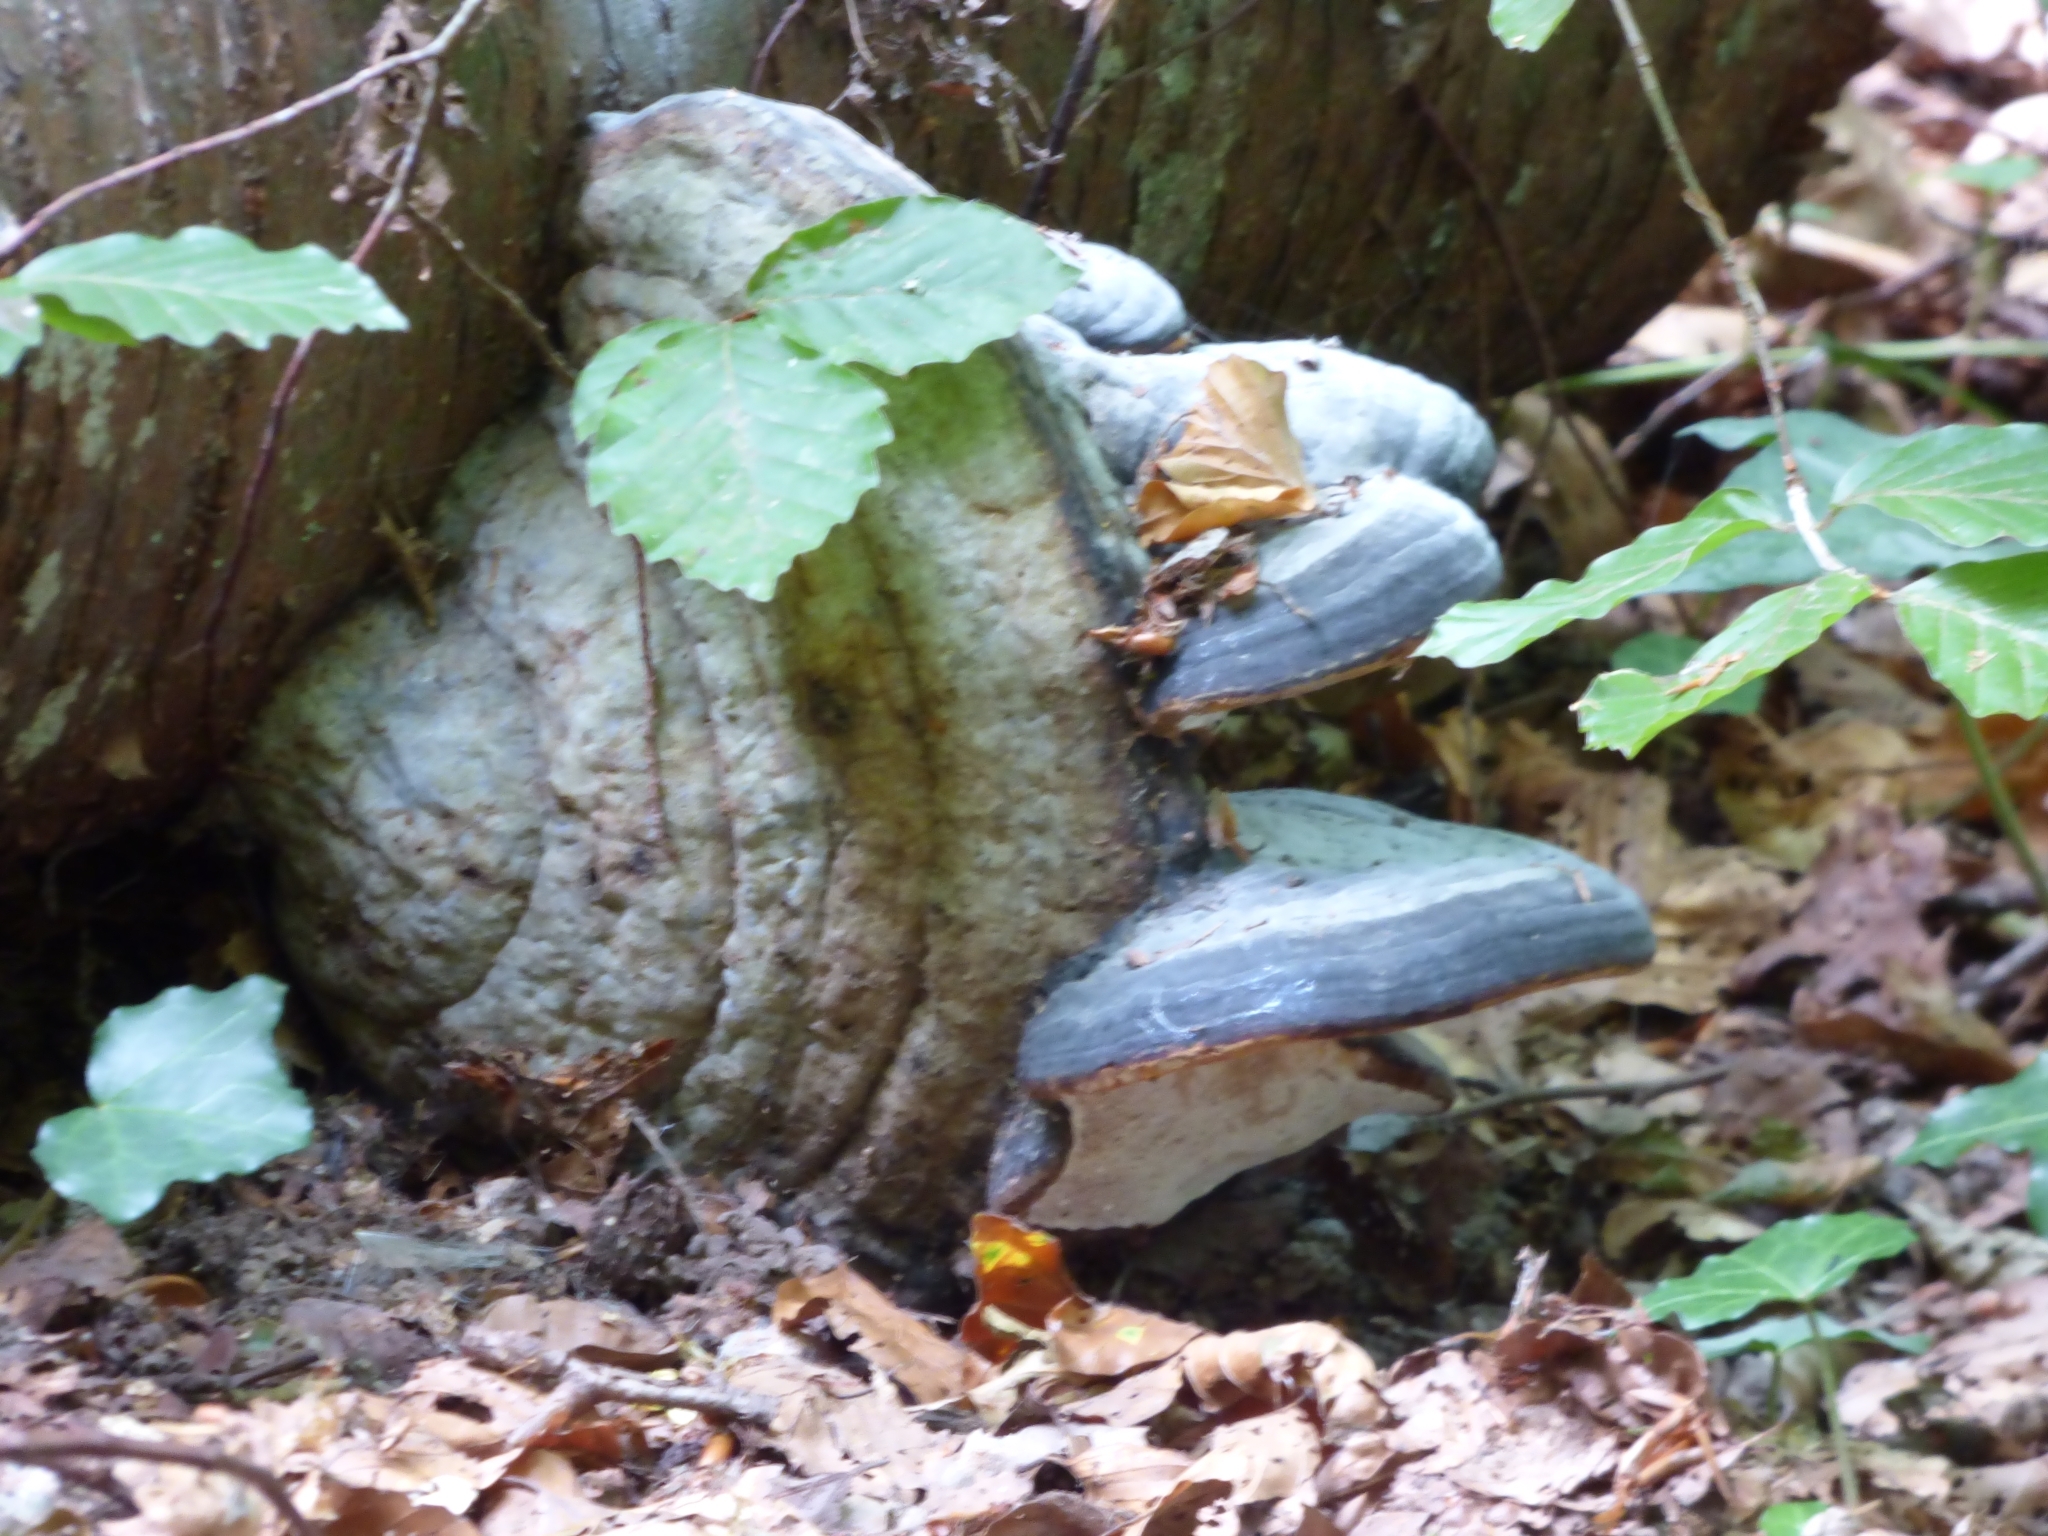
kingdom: Fungi
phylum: Basidiomycota
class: Agaricomycetes
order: Polyporales
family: Polyporaceae
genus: Fomes
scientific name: Fomes fomentarius
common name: Hoof fungus
